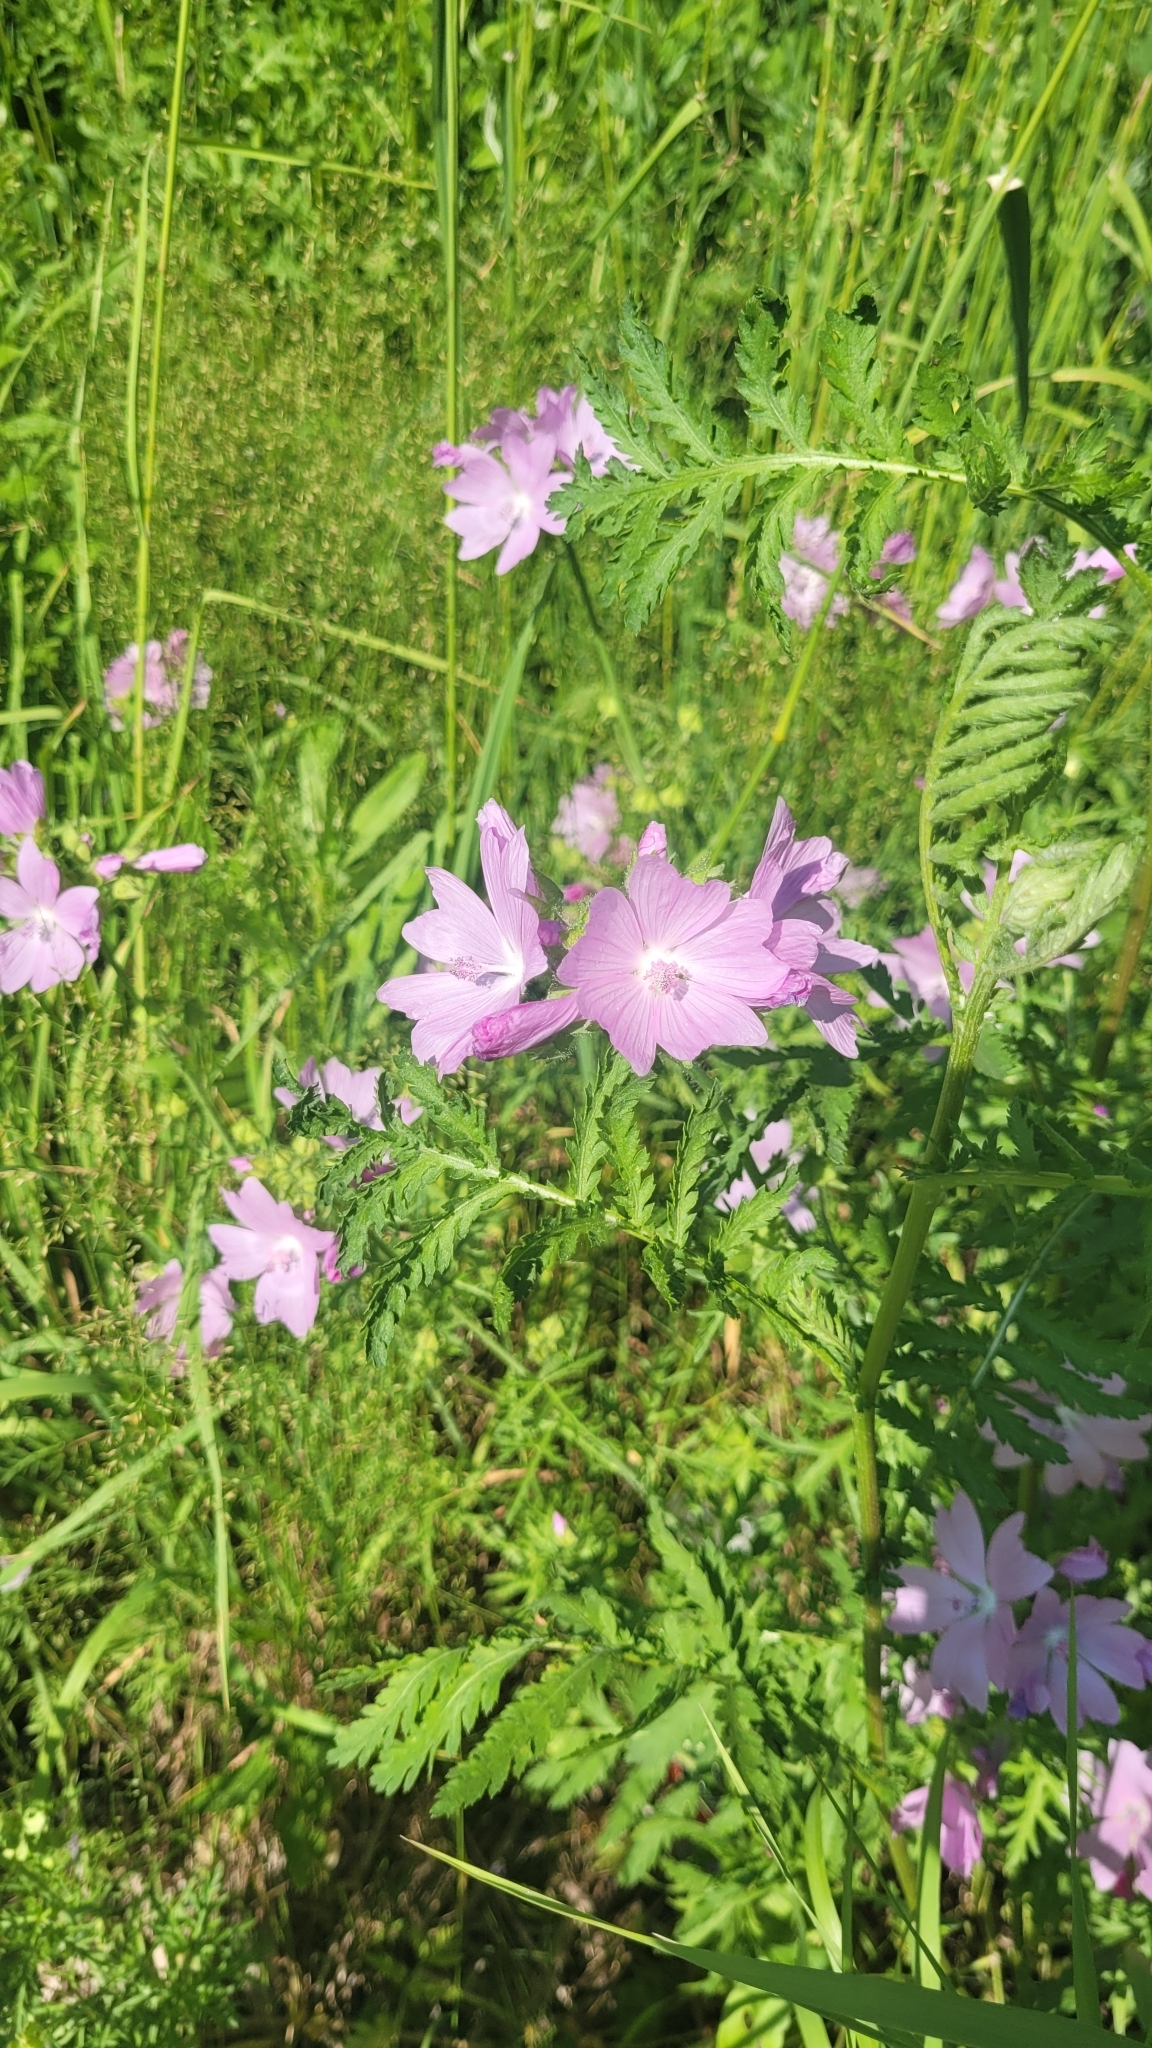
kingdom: Plantae
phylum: Tracheophyta
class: Magnoliopsida
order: Malvales
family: Malvaceae
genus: Malva
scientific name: Malva moschata
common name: Musk mallow
